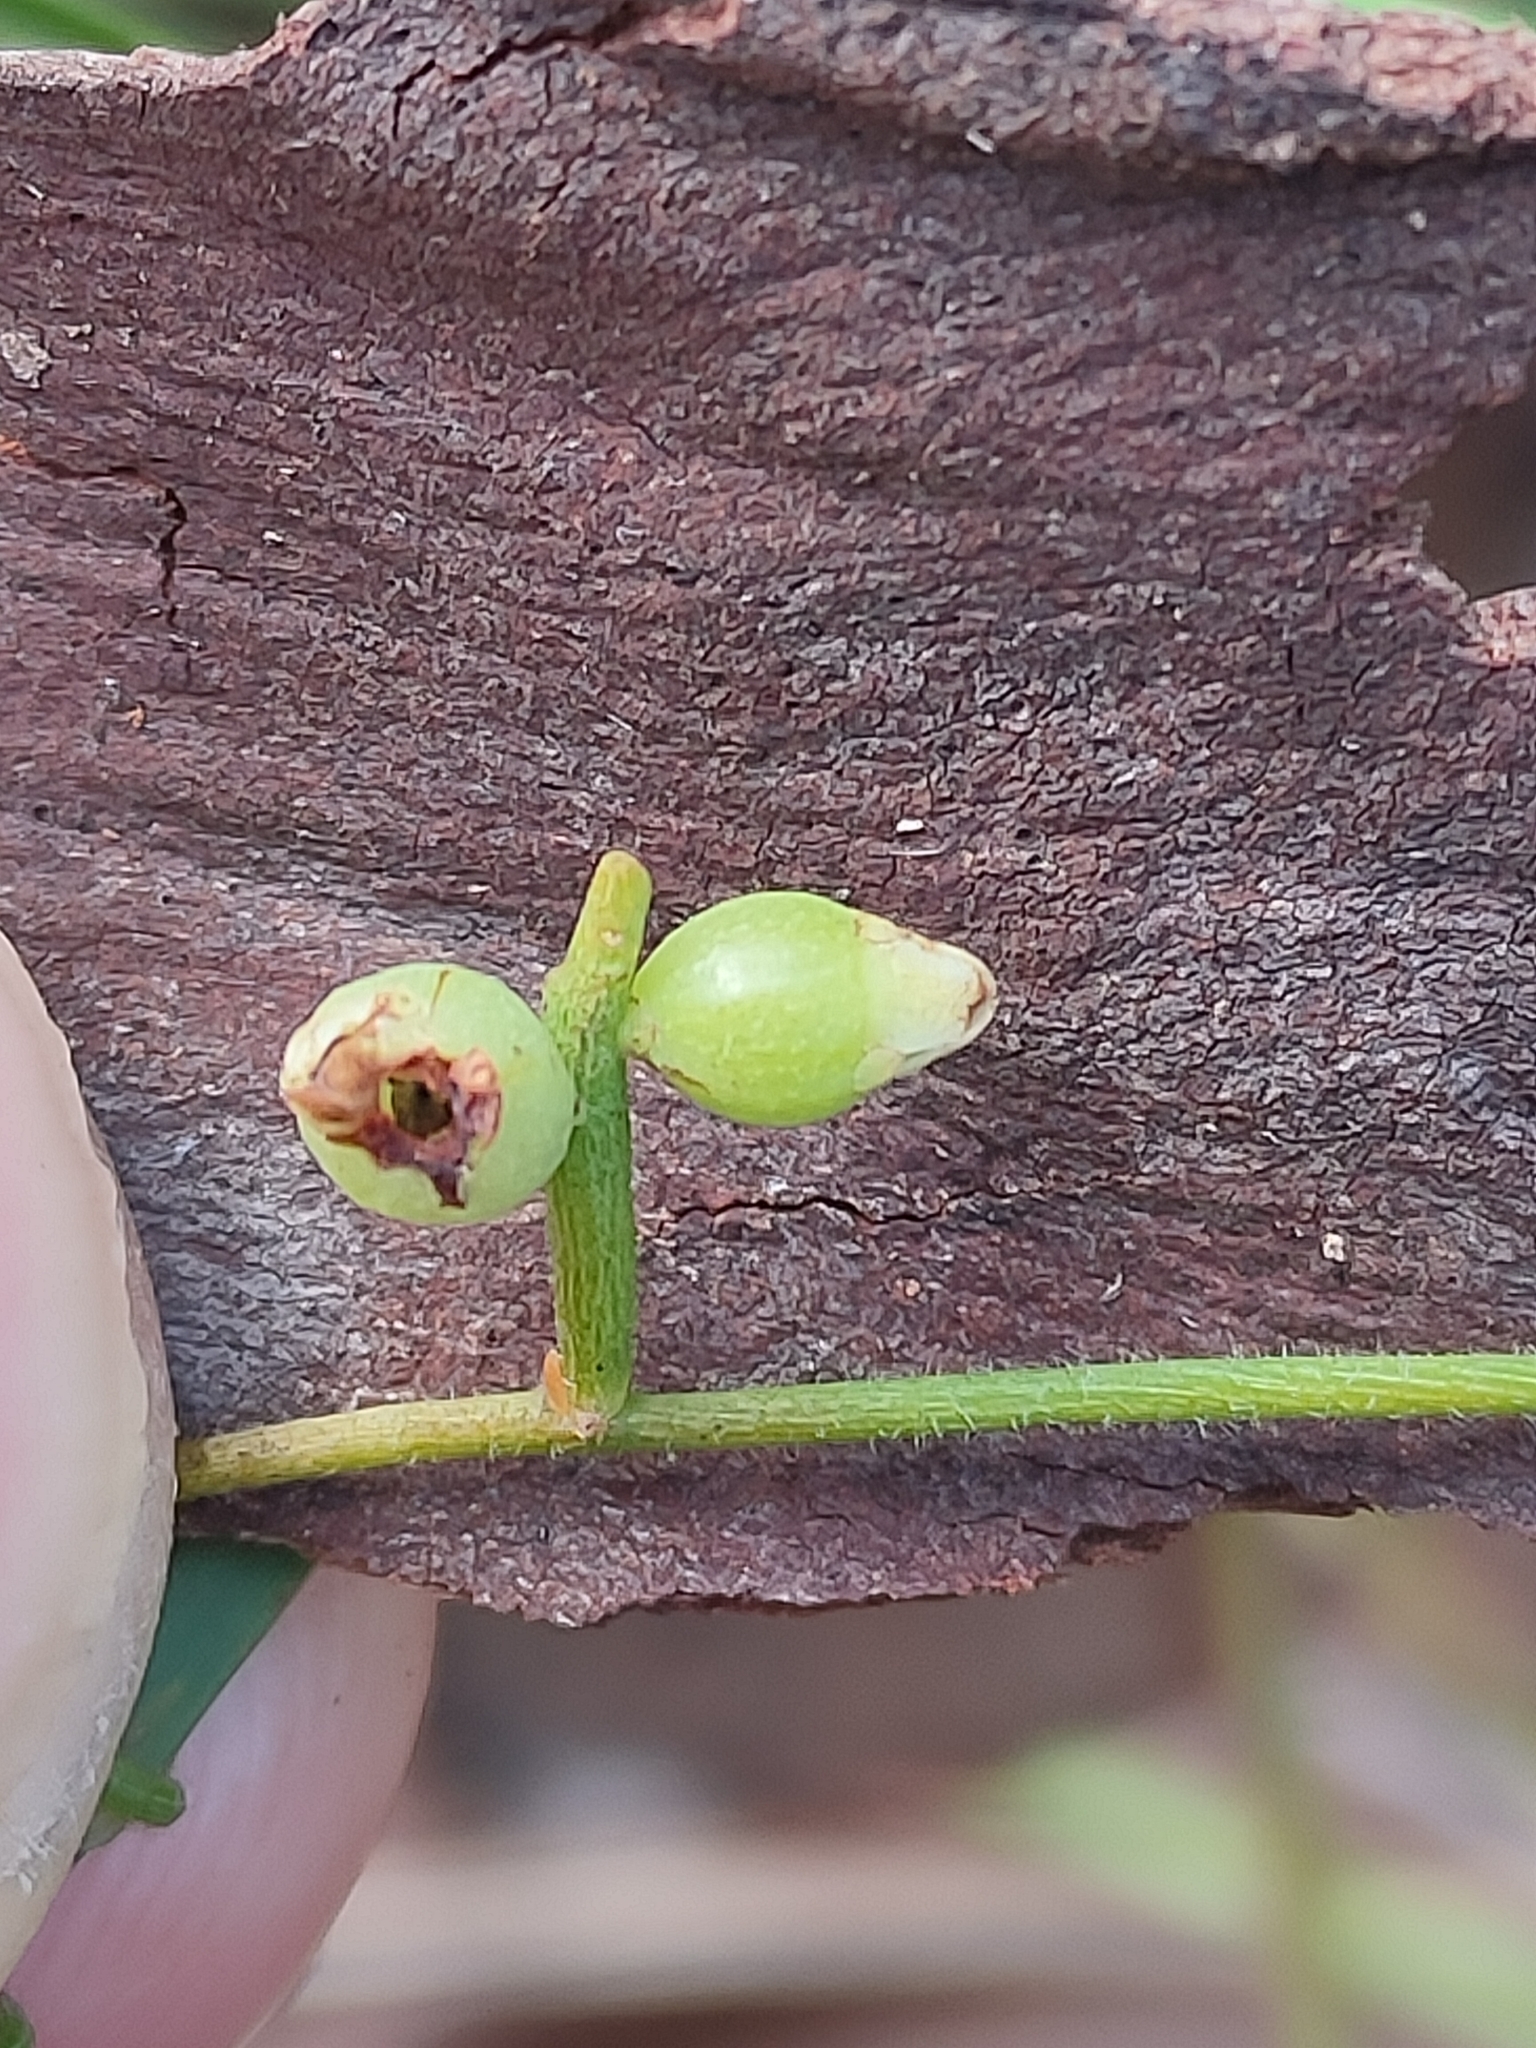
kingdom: Plantae
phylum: Tracheophyta
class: Magnoliopsida
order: Laurales
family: Lauraceae
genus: Cassytha
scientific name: Cassytha filiformis
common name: Dodder-laurel
